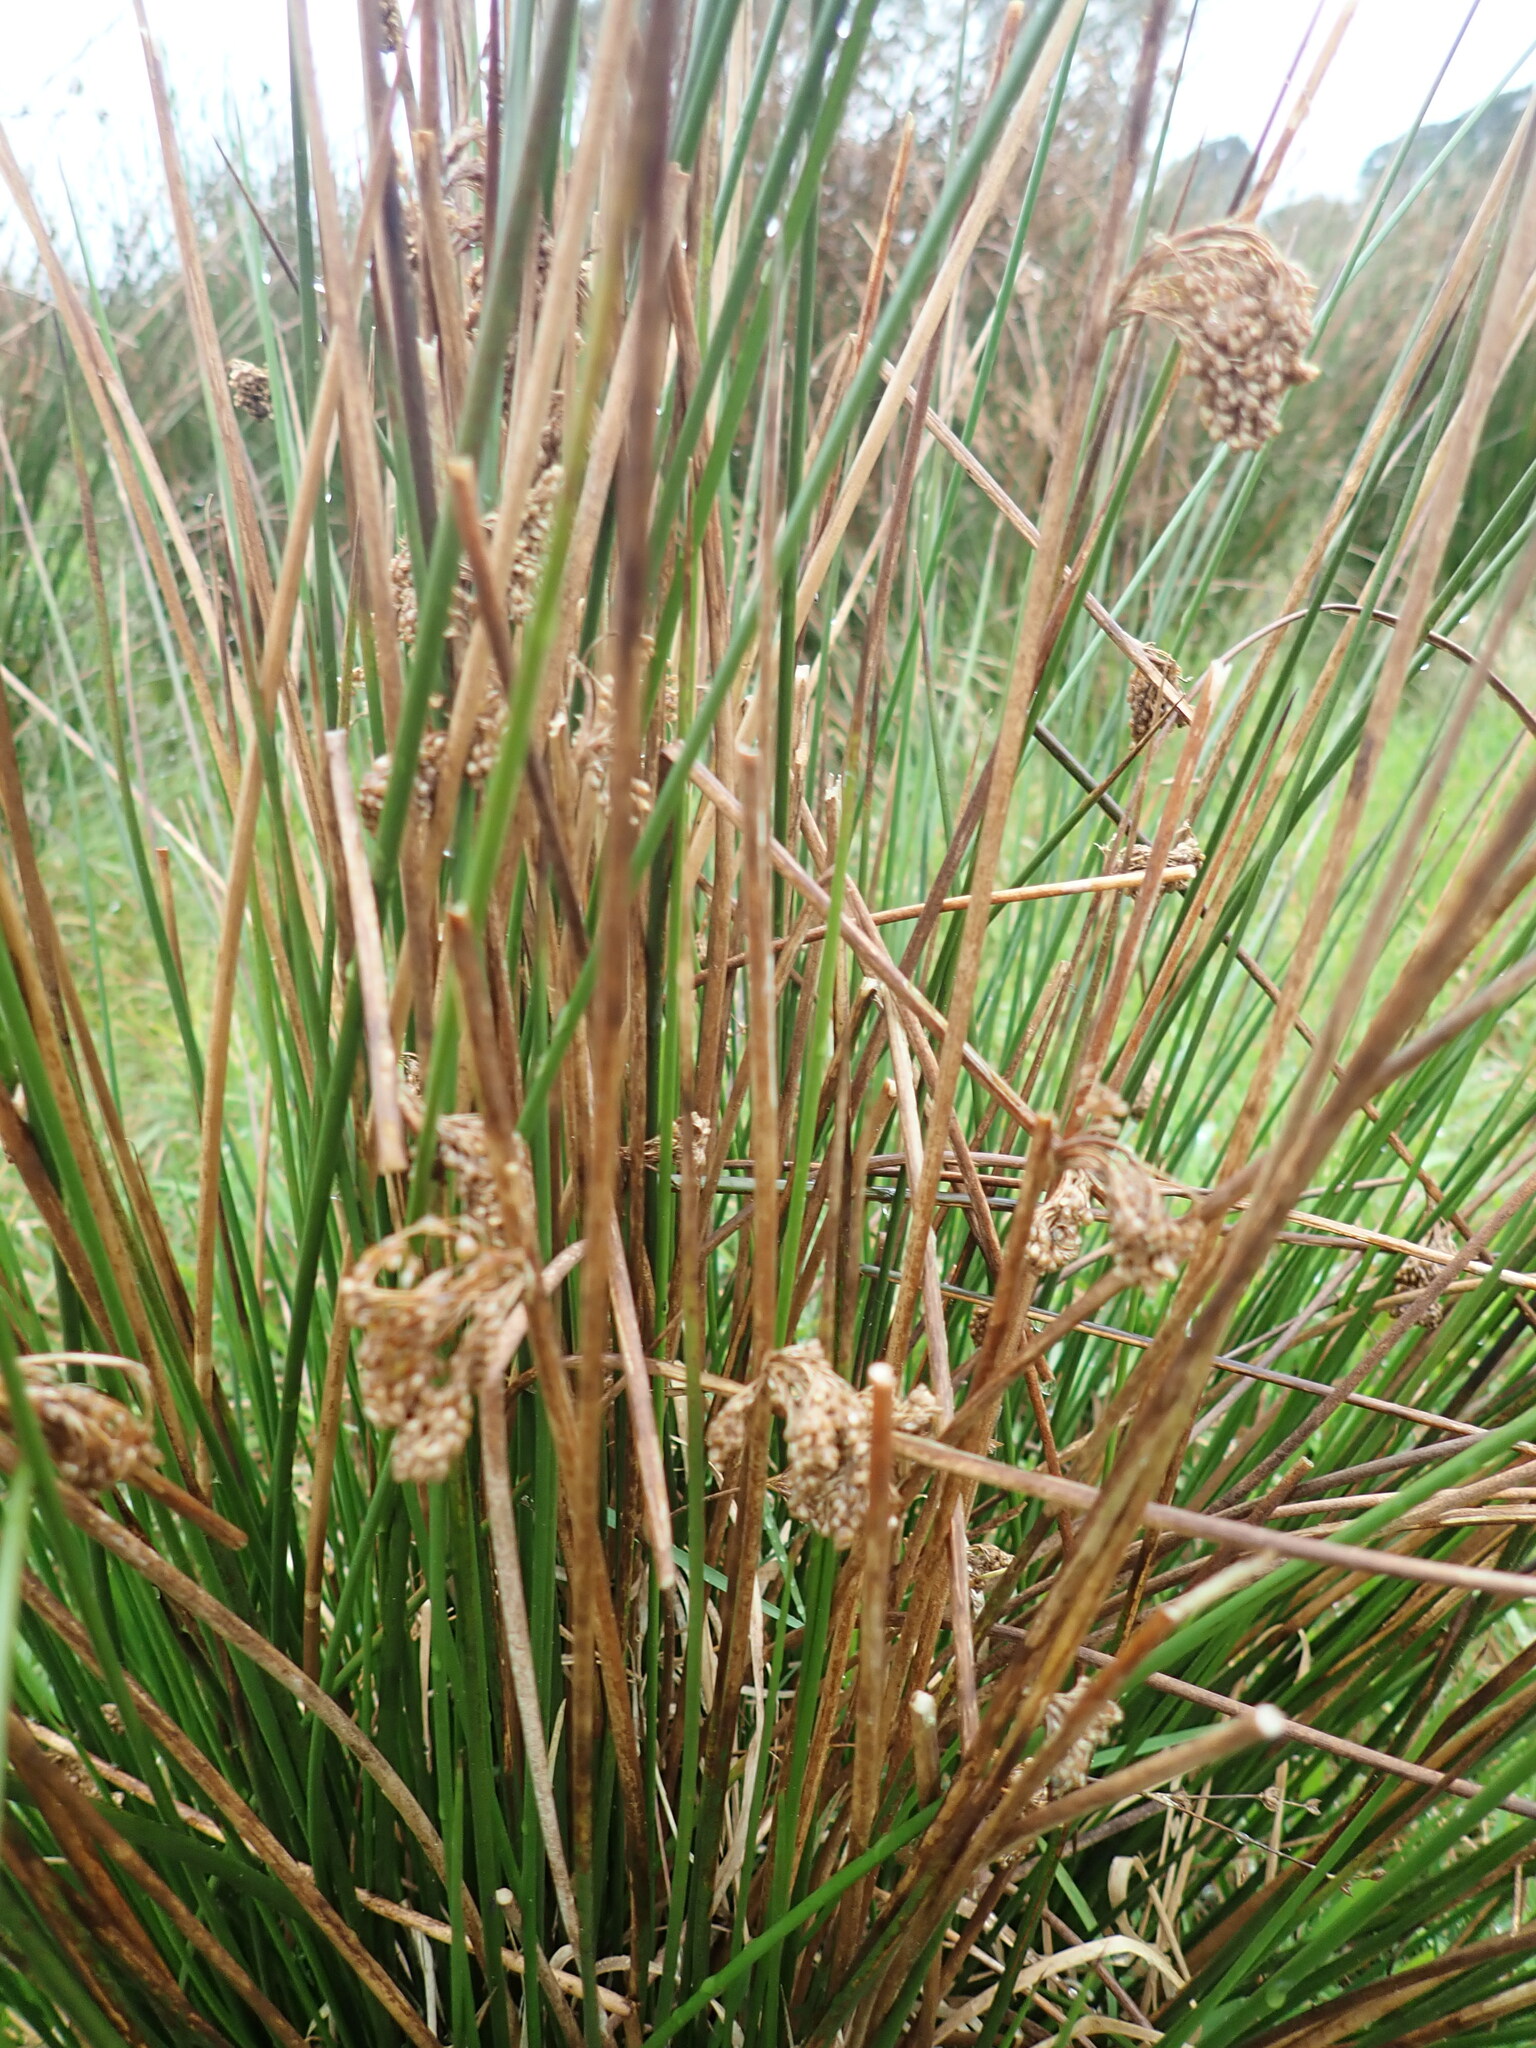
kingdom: Plantae
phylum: Tracheophyta
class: Liliopsida
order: Poales
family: Juncaceae
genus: Juncus
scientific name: Juncus effusus
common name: Soft rush
